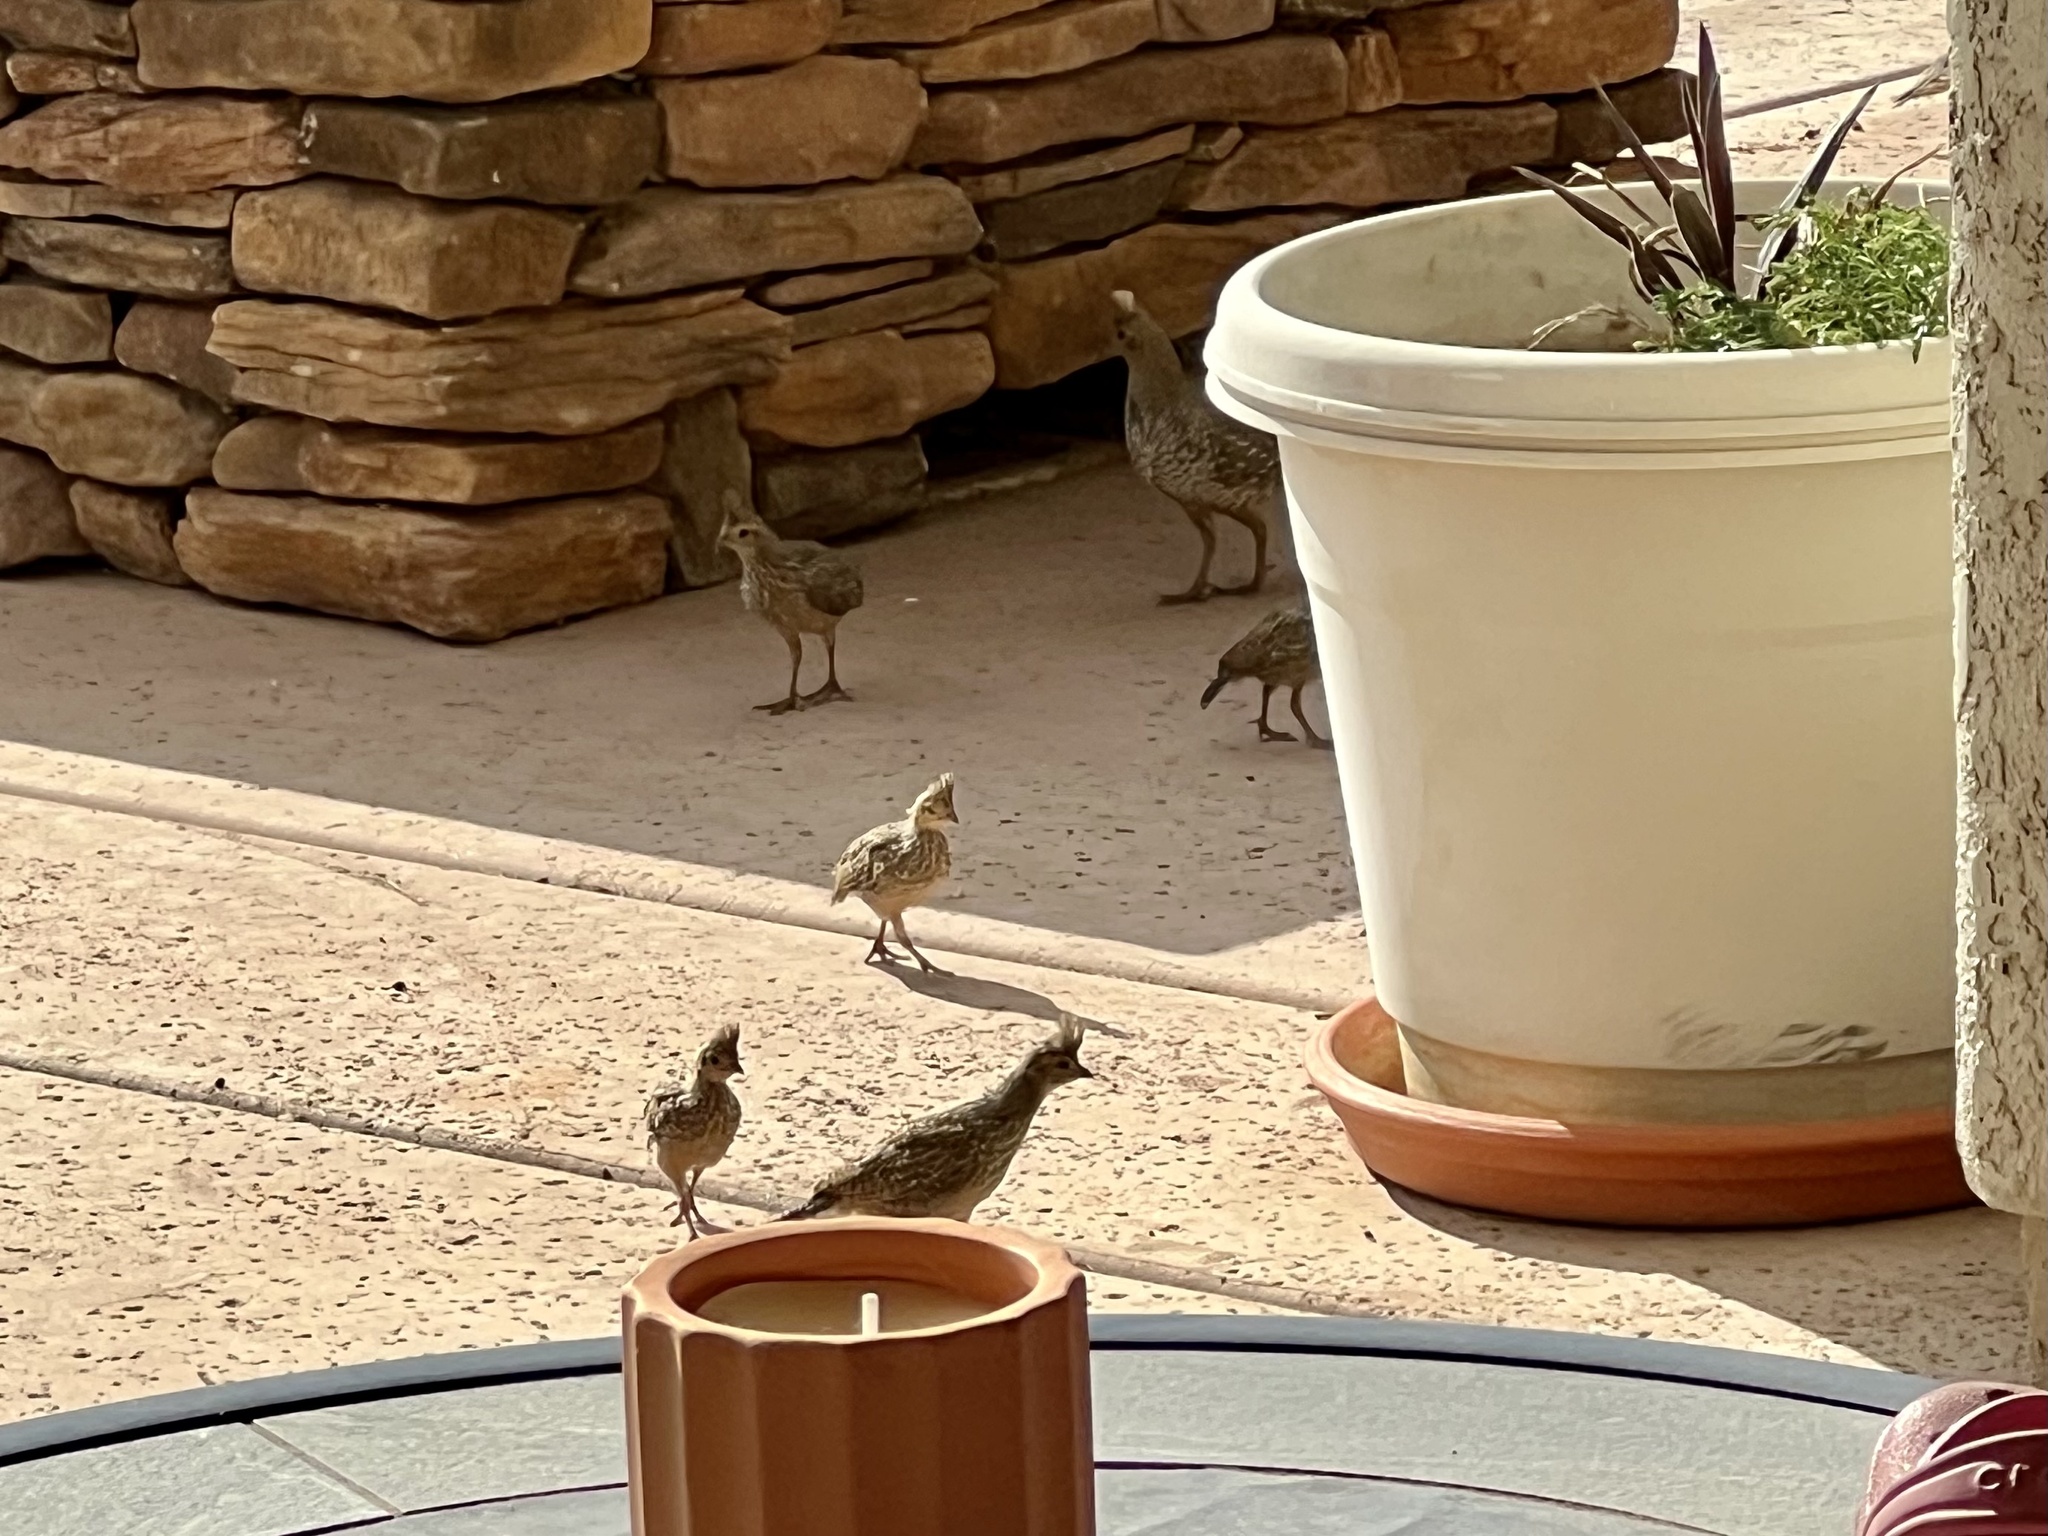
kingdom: Animalia
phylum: Chordata
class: Aves
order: Galliformes
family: Odontophoridae
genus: Callipepla
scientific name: Callipepla squamata
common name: Scaled quail
